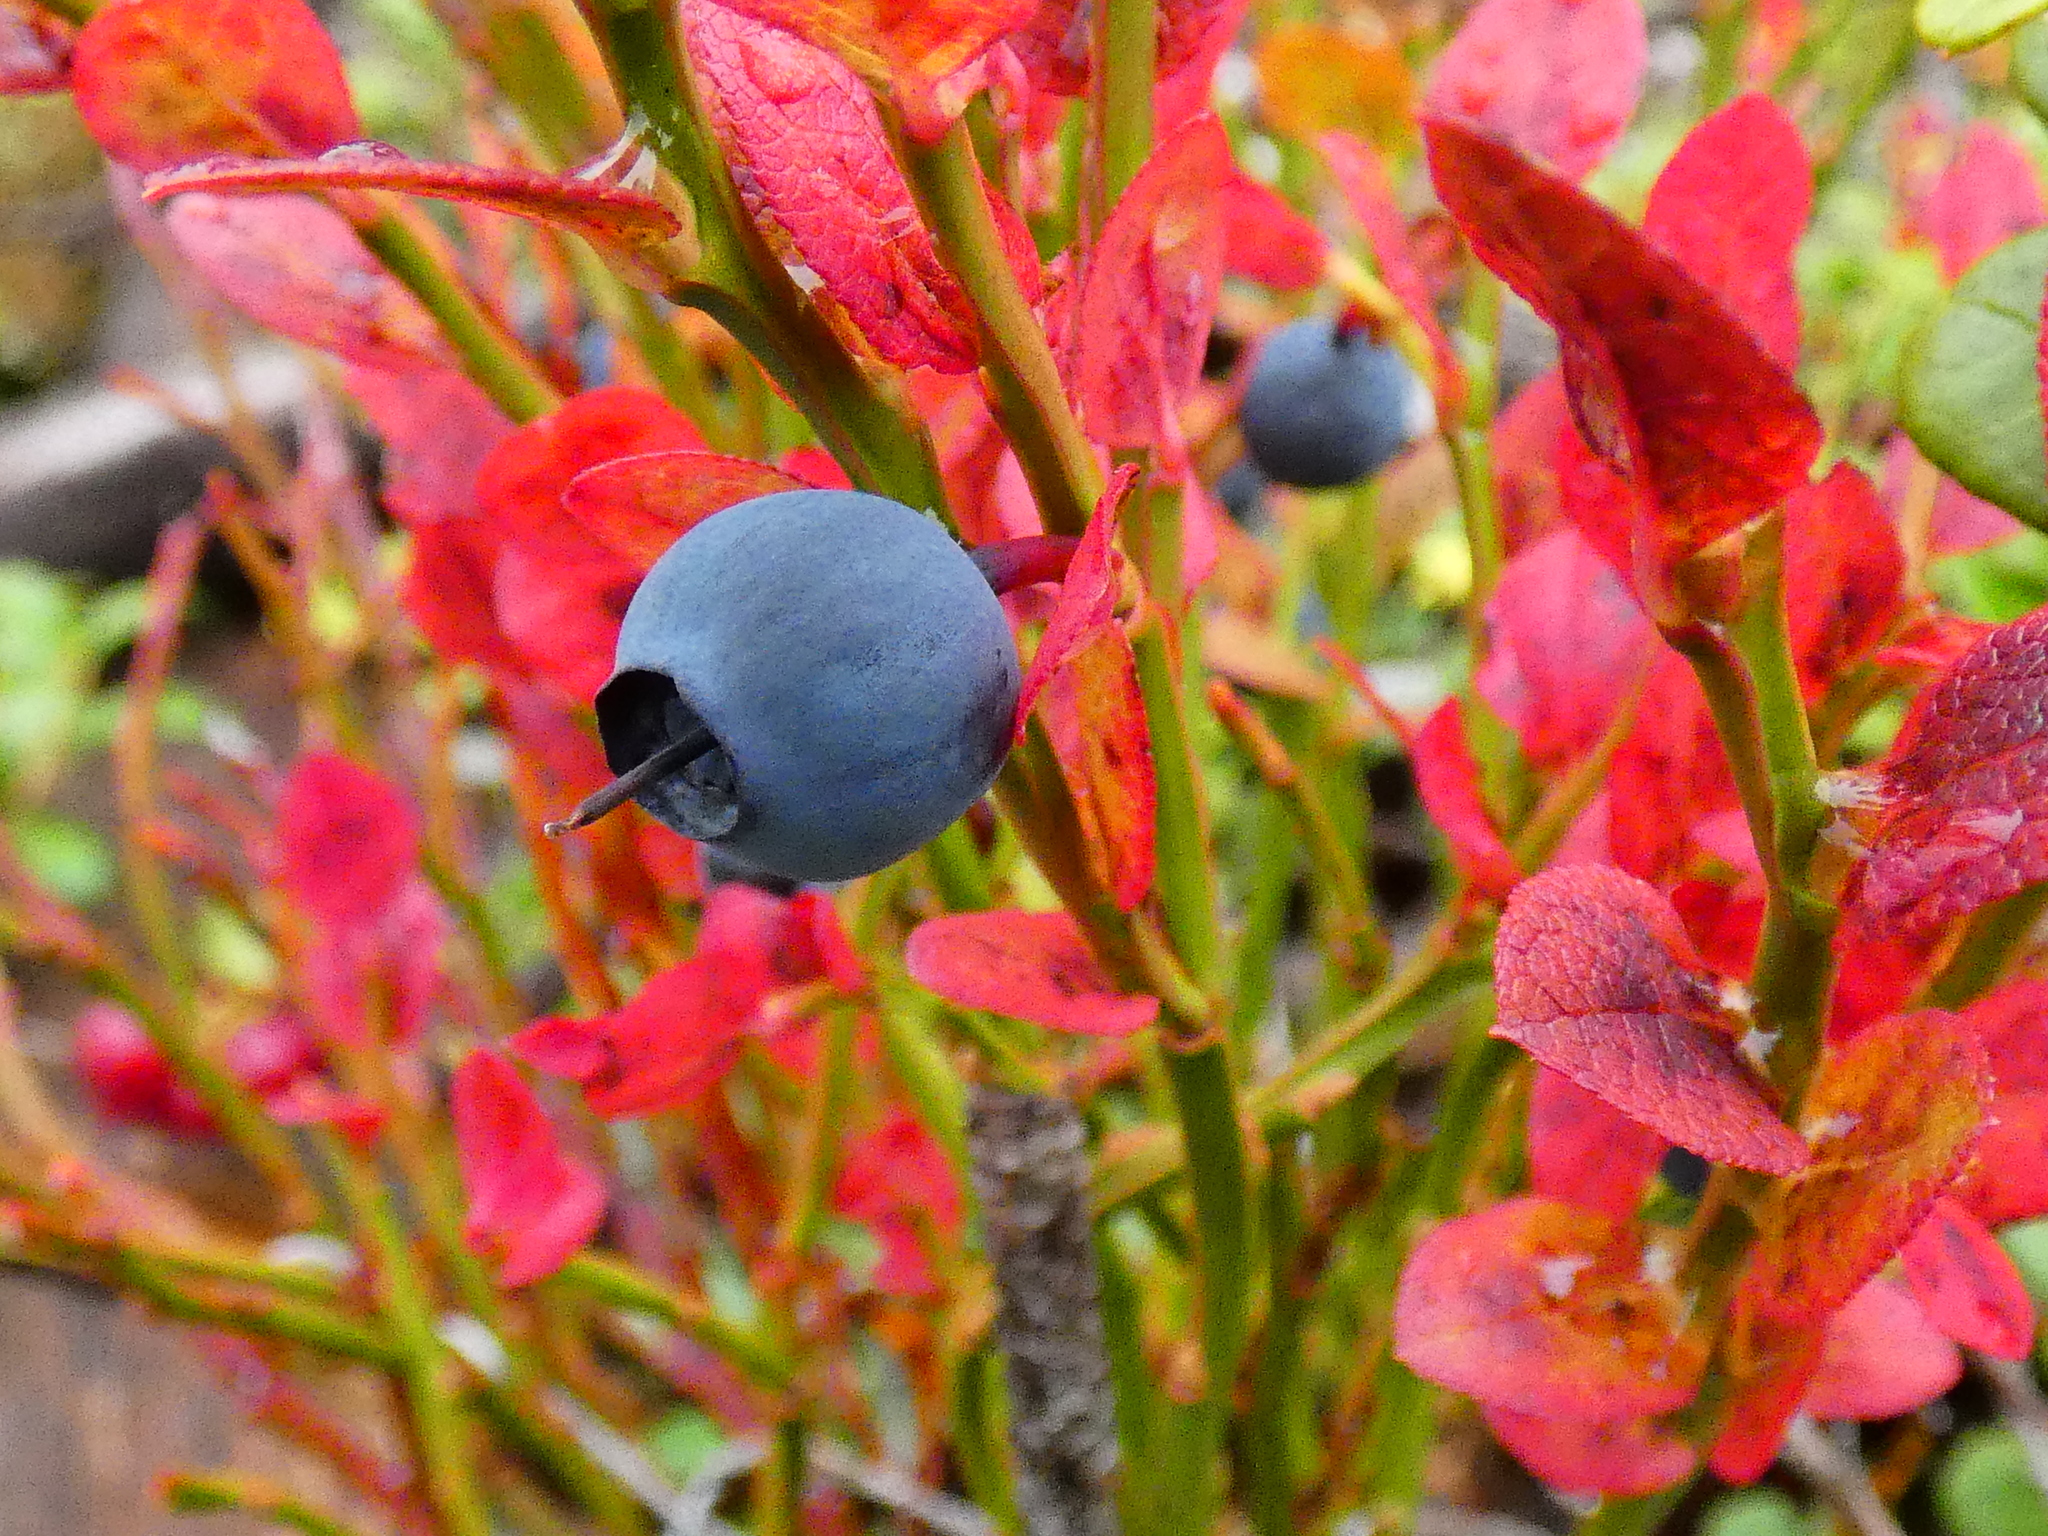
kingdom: Plantae
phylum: Tracheophyta
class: Magnoliopsida
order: Ericales
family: Ericaceae
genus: Vaccinium
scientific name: Vaccinium myrtillus
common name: Bilberry
